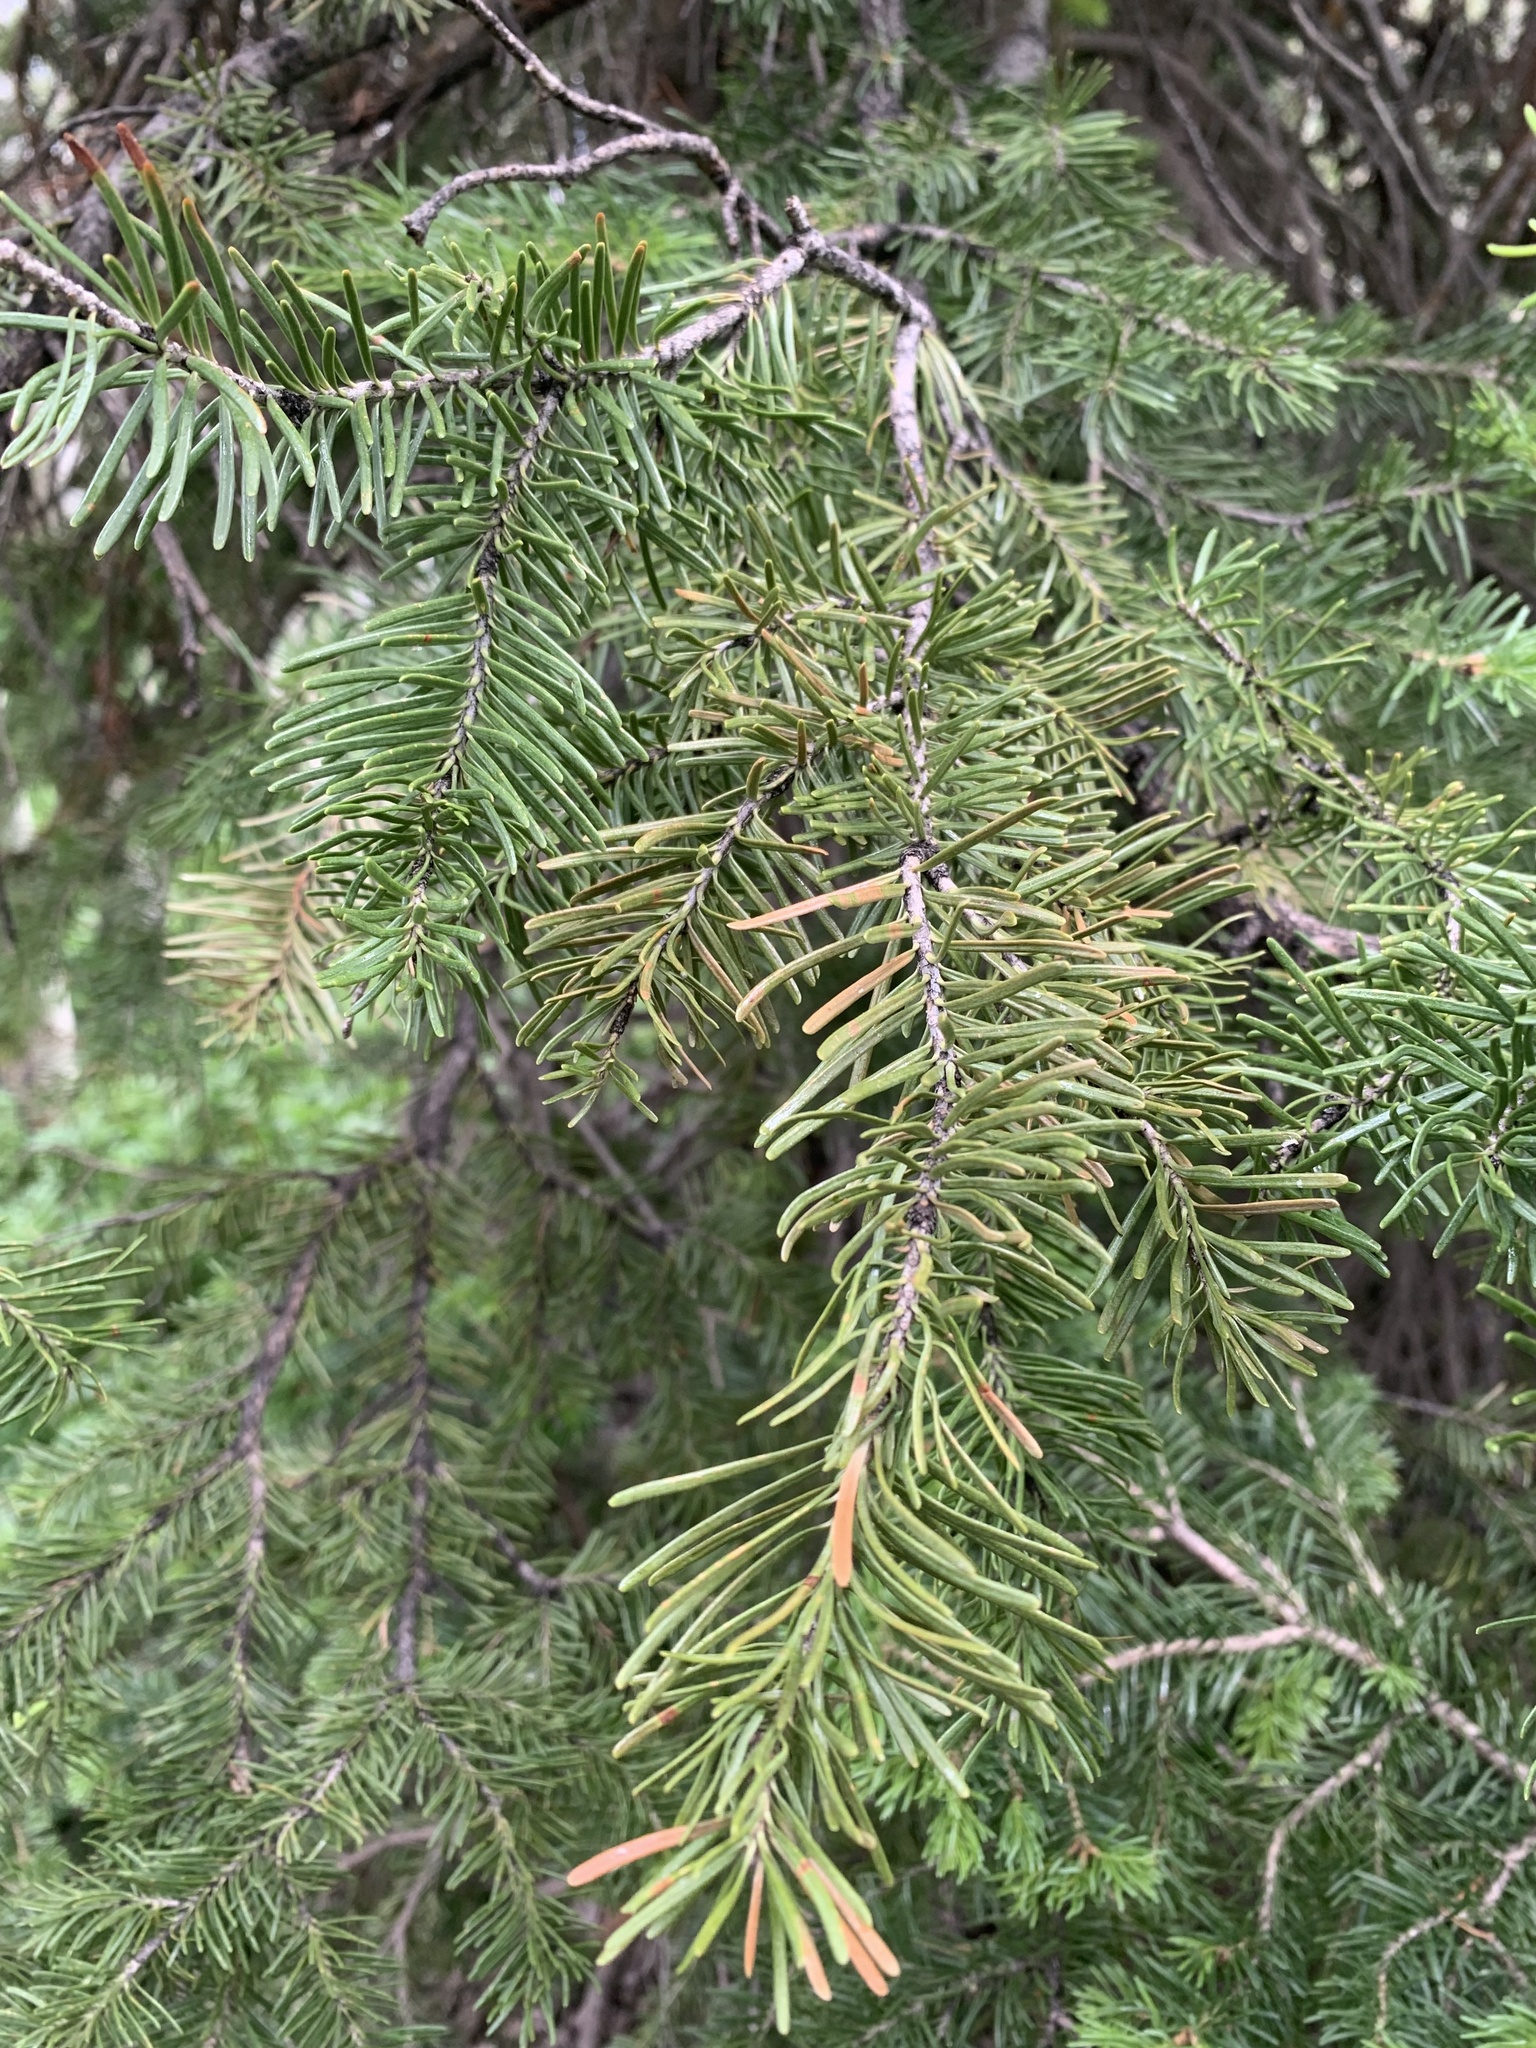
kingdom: Plantae
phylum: Tracheophyta
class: Pinopsida
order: Pinales
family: Pinaceae
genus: Pseudotsuga
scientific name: Pseudotsuga menziesii
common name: Douglas fir
